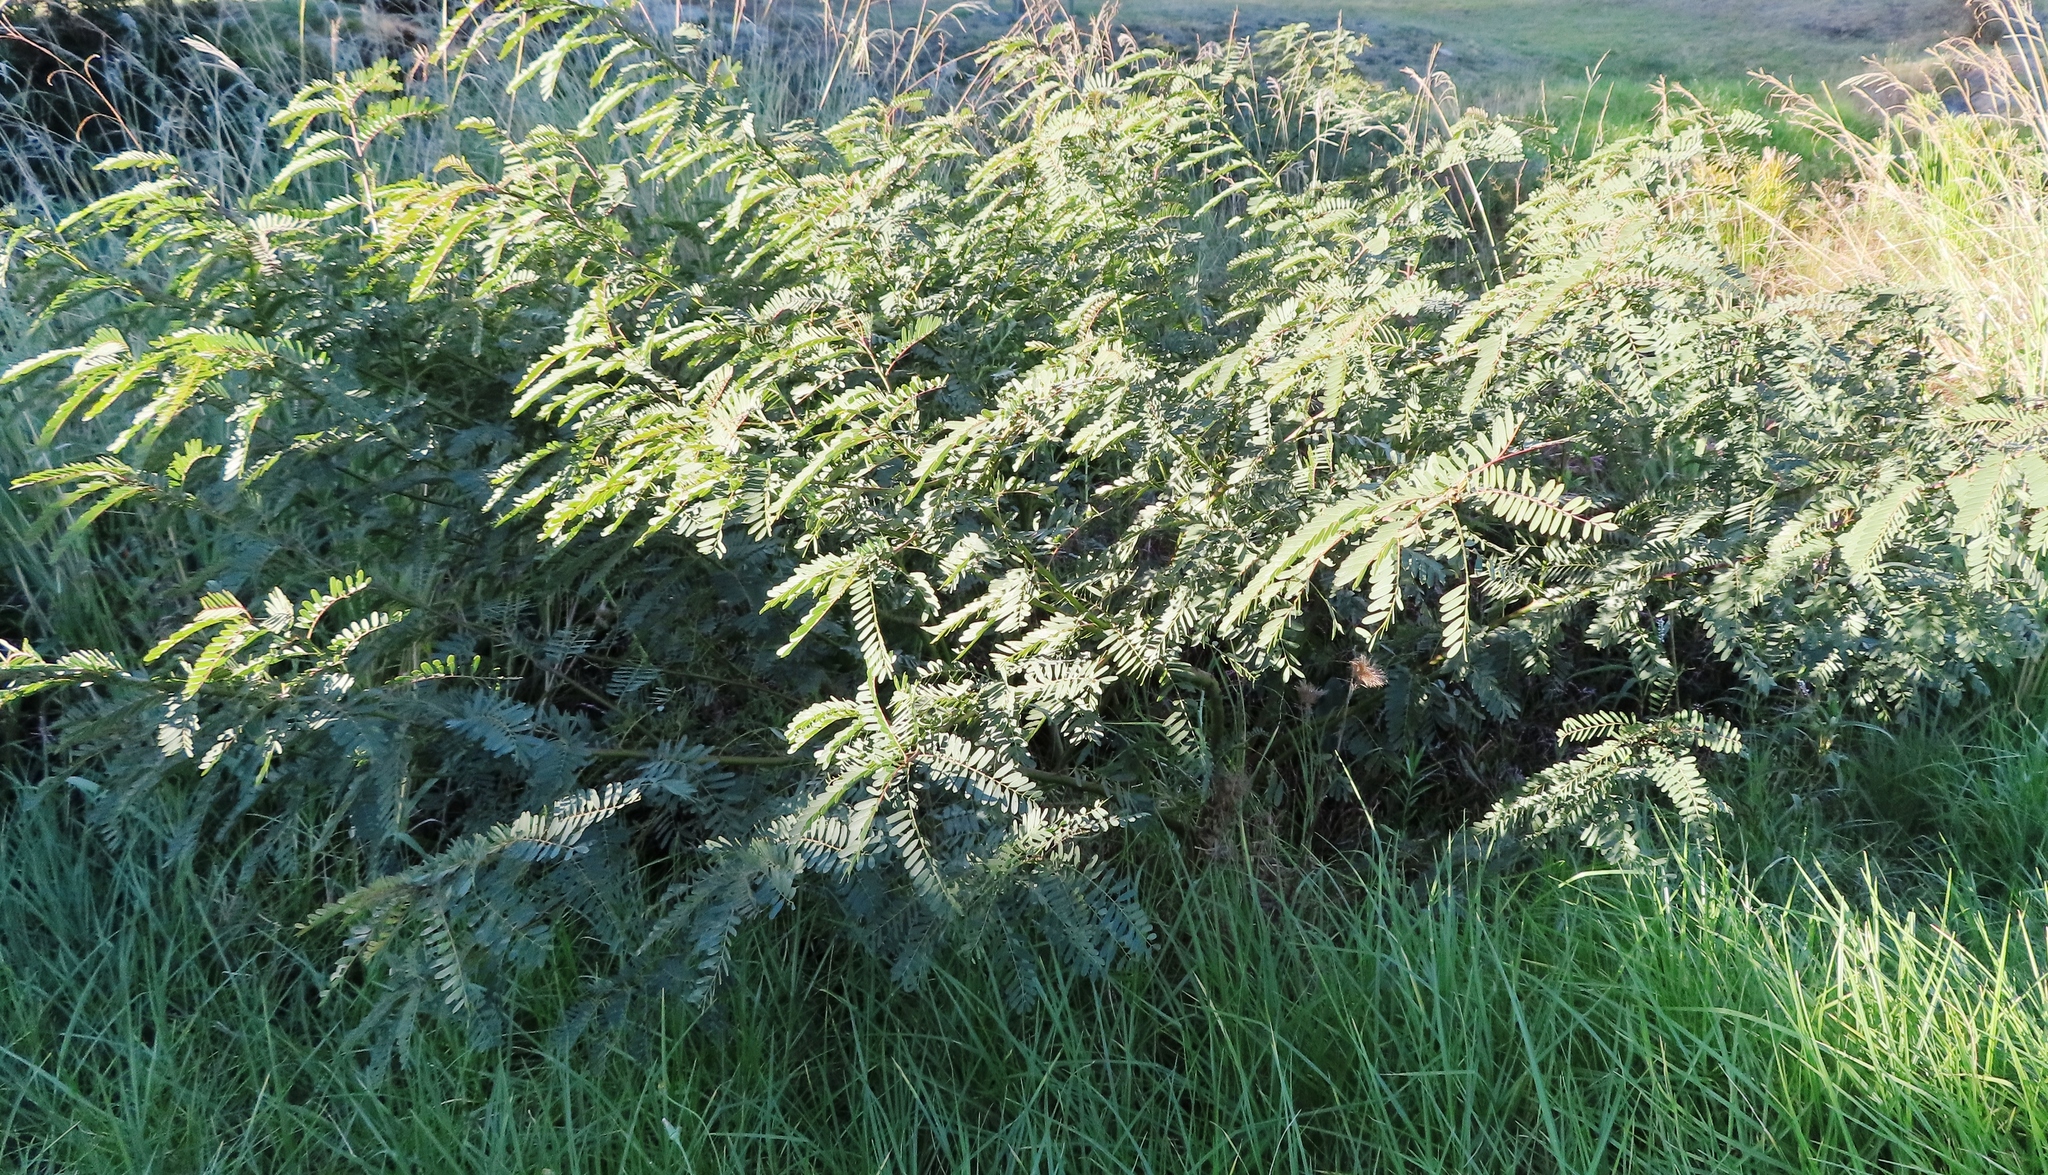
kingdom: Plantae
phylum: Tracheophyta
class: Magnoliopsida
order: Fabales
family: Fabaceae
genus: Sesbania
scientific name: Sesbania punicea
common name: Rattlebox
